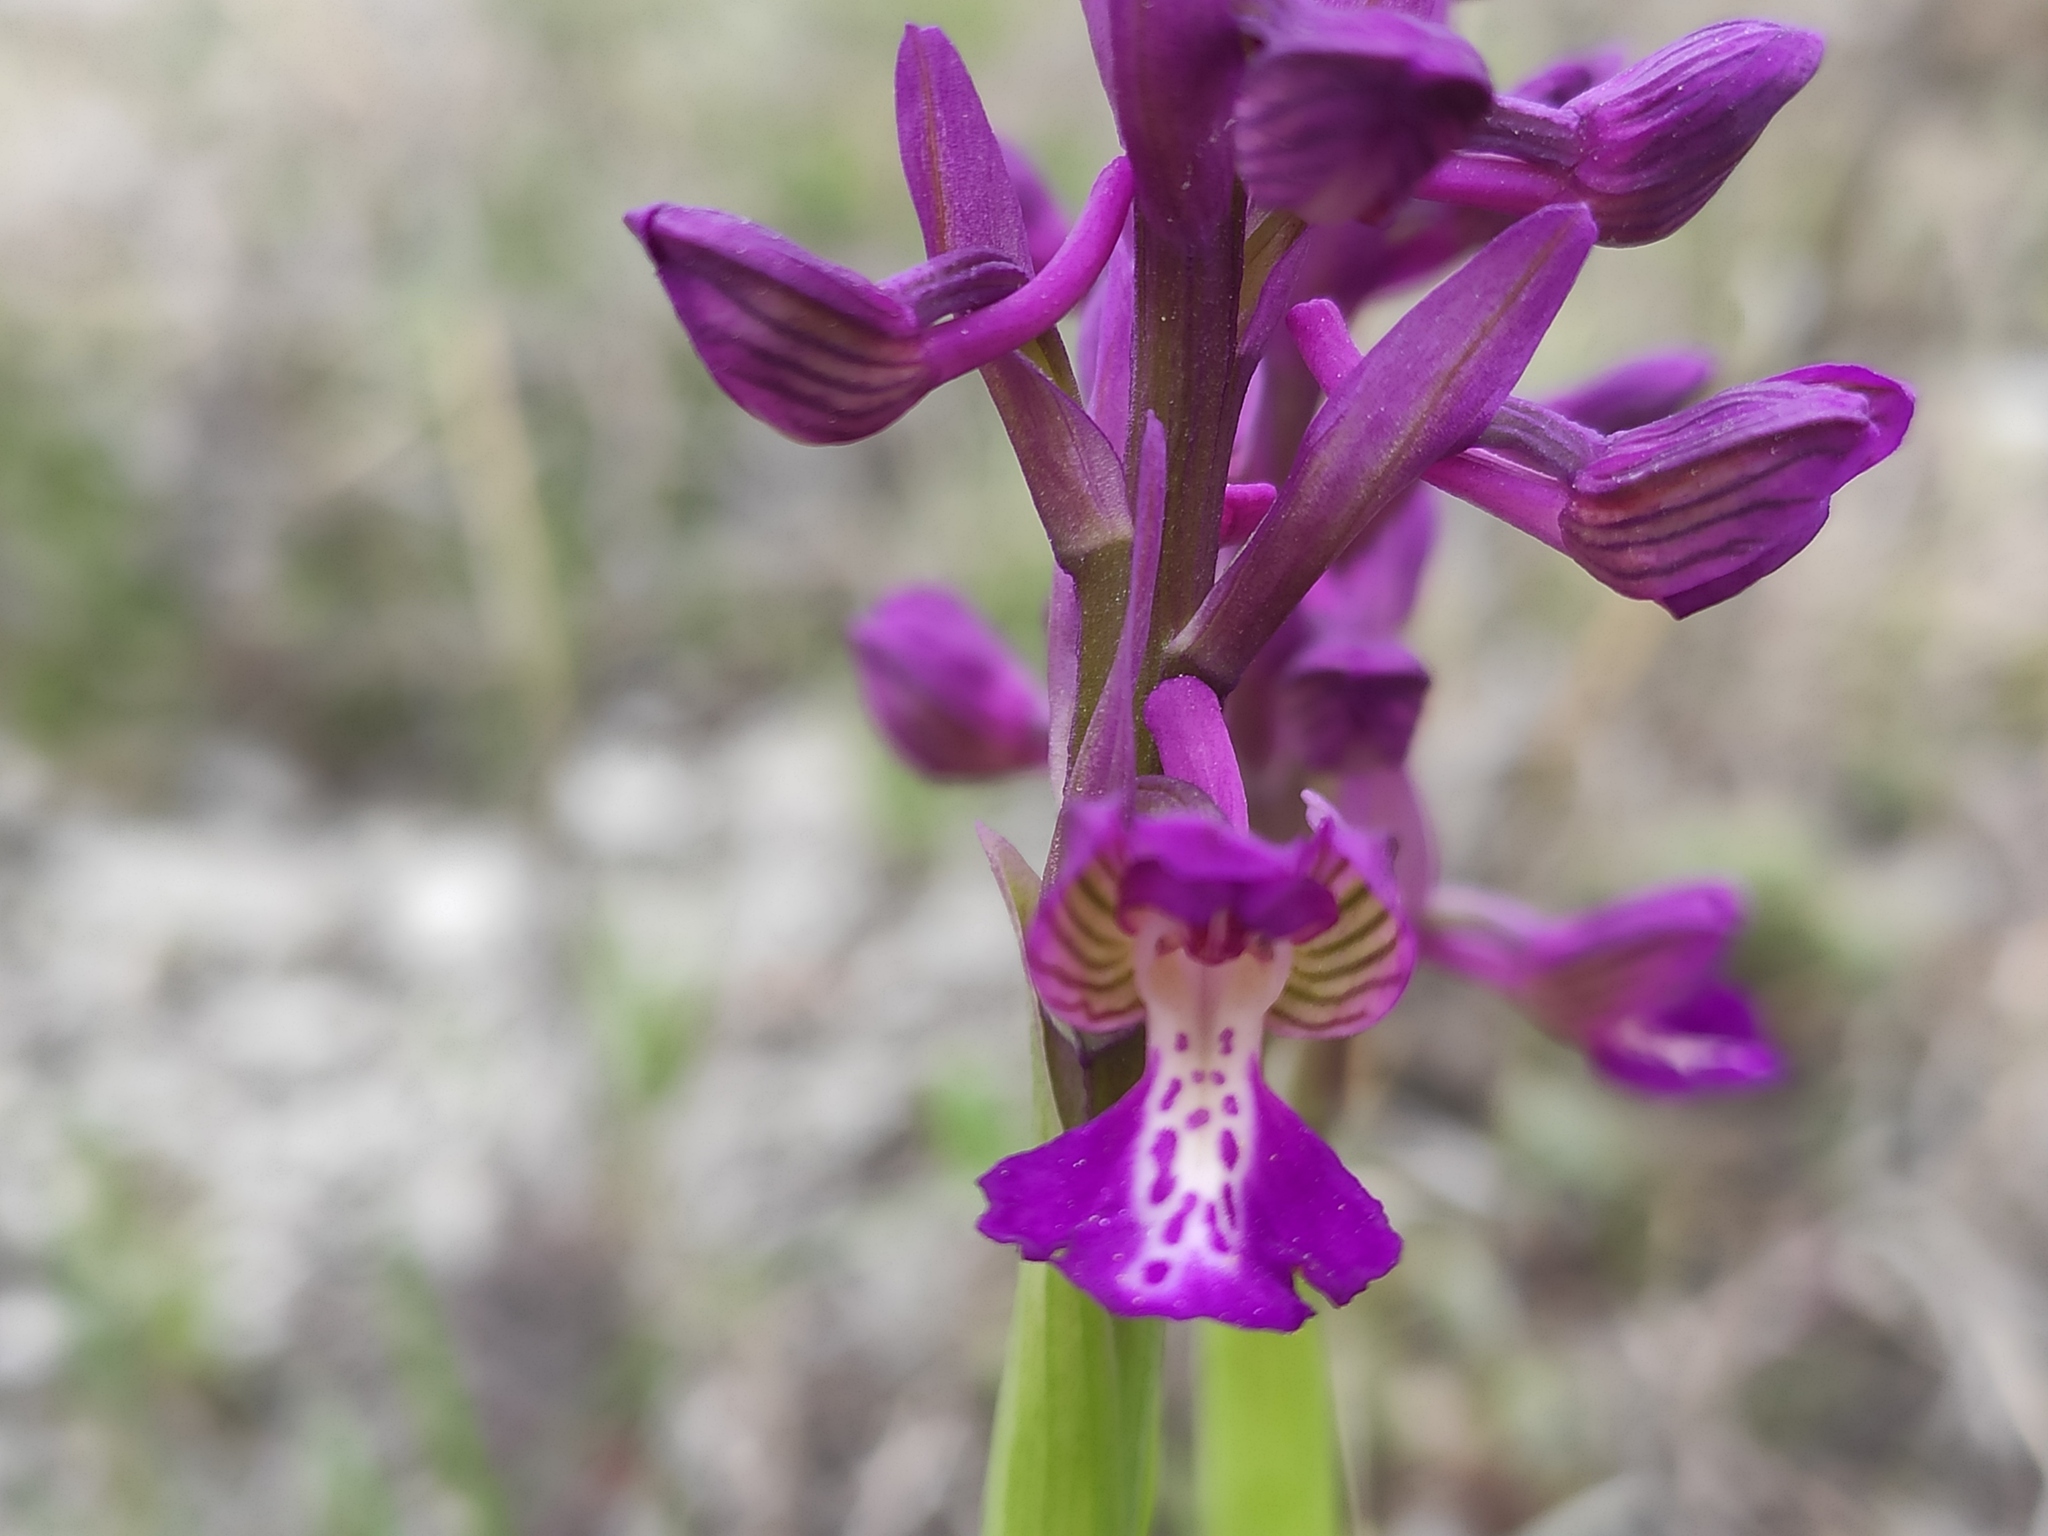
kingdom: Plantae
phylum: Tracheophyta
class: Liliopsida
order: Asparagales
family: Orchidaceae
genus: Anacamptis
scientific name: Anacamptis morio
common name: Green-winged orchid
